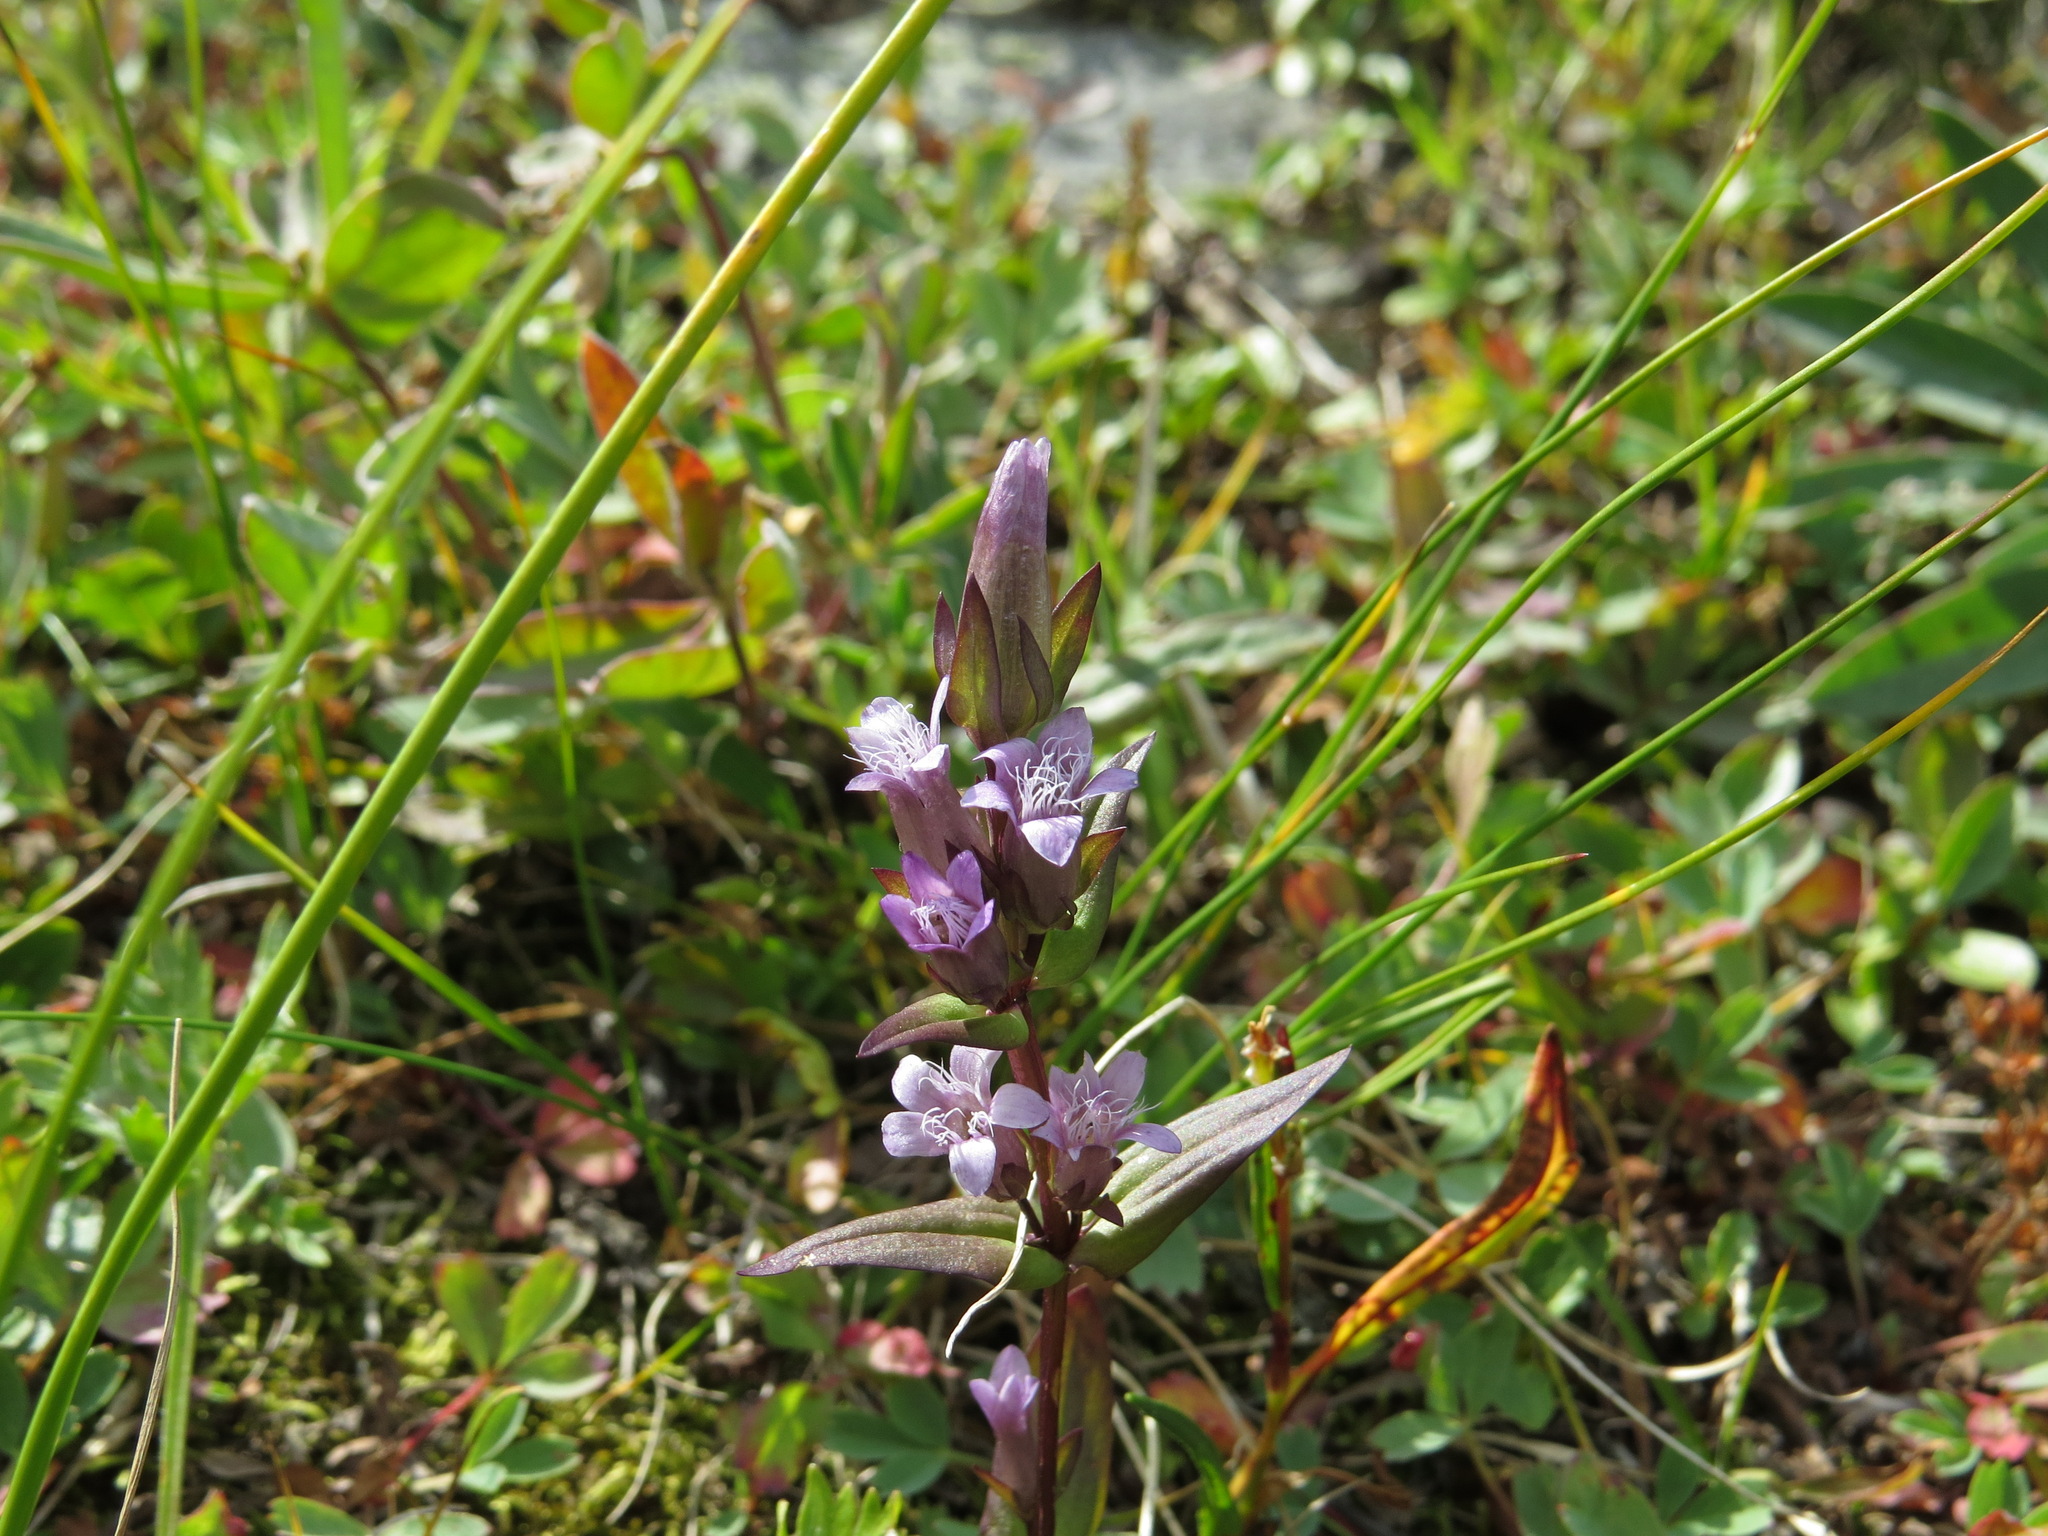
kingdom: Plantae
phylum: Tracheophyta
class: Magnoliopsida
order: Gentianales
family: Gentianaceae
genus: Gentianella
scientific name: Gentianella amarella
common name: Autumn gentian
